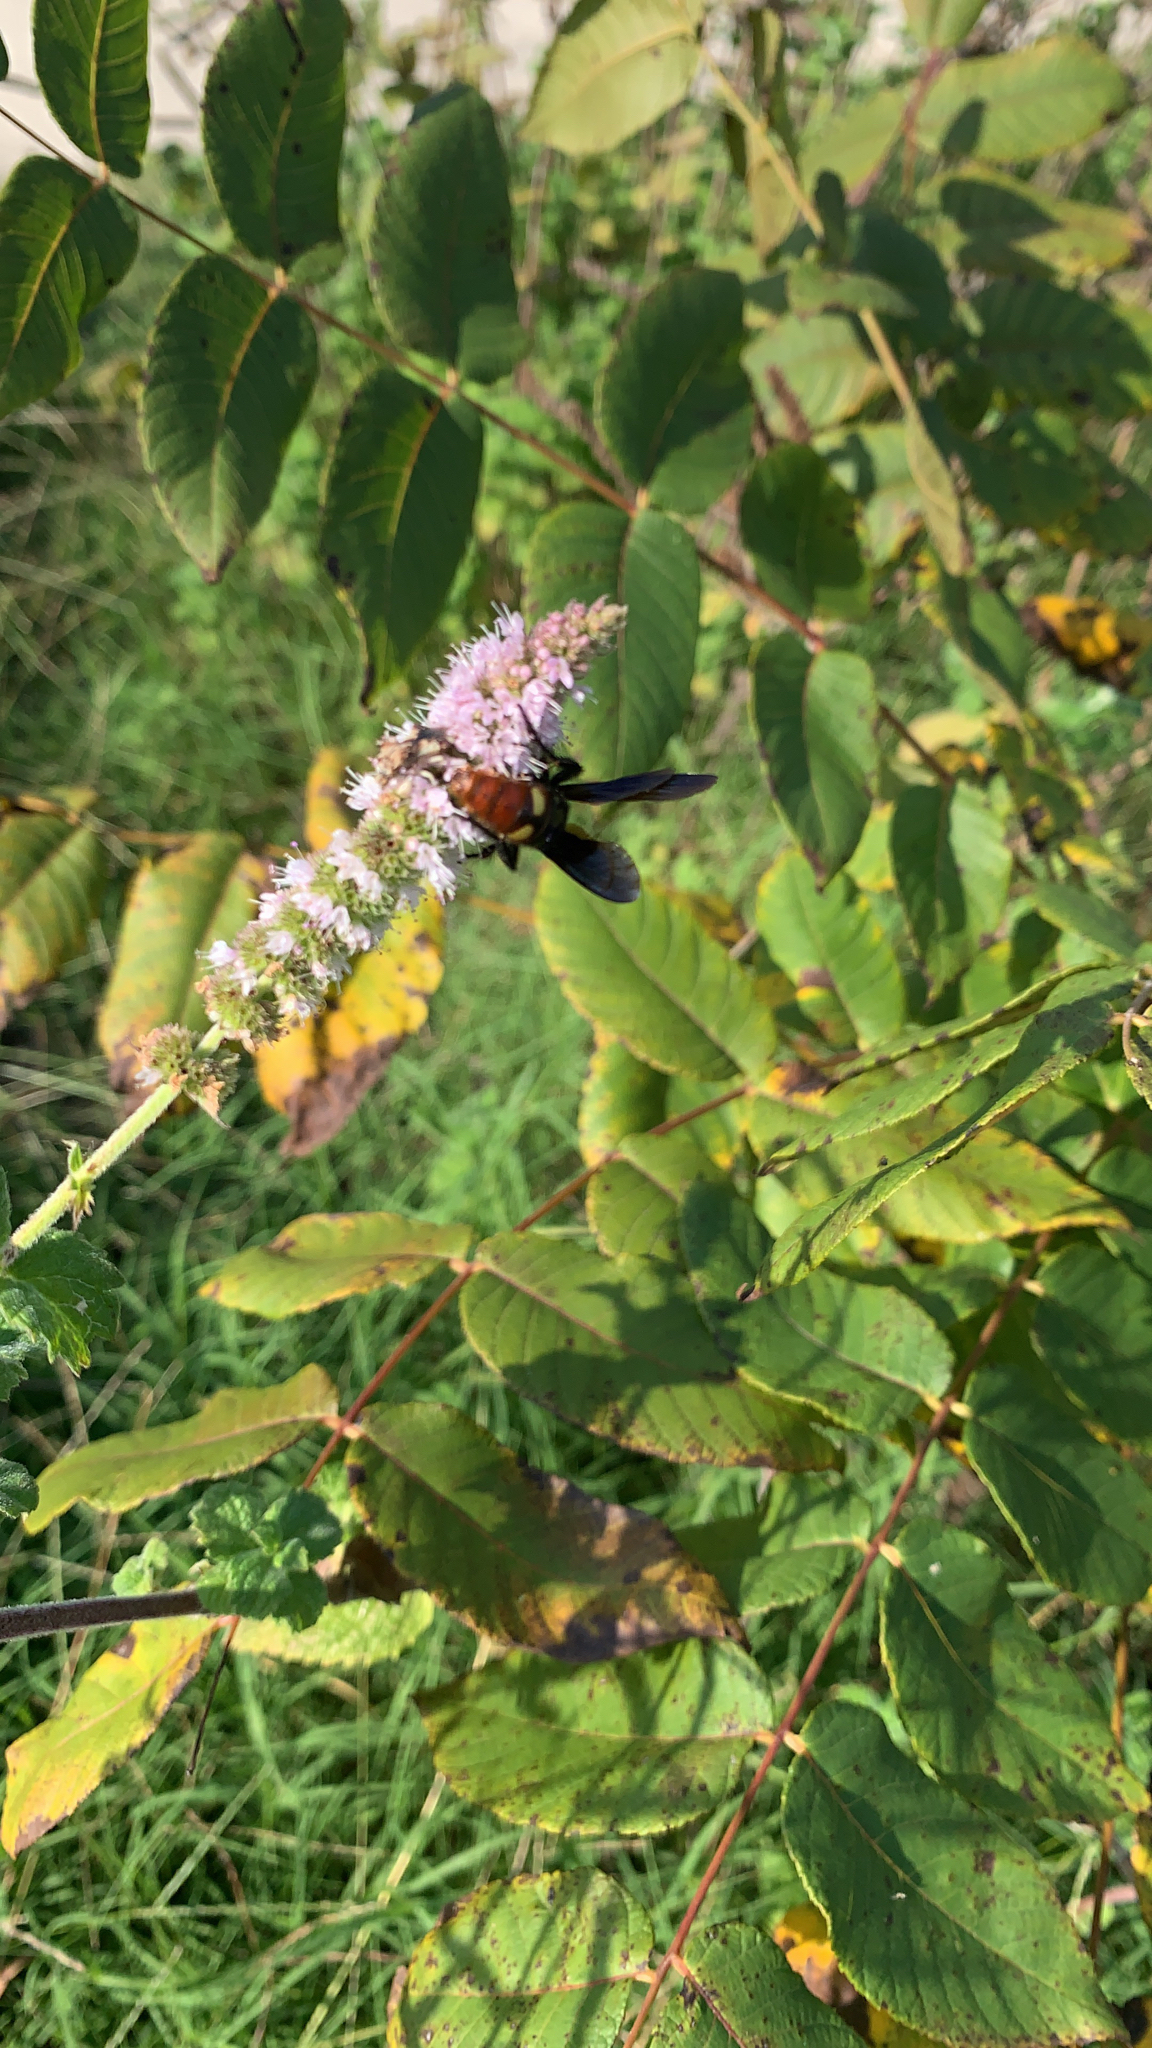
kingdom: Animalia
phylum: Arthropoda
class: Insecta
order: Hymenoptera
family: Scoliidae
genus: Scolia
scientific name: Scolia dubia
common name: Blue-winged scoliid wasp
